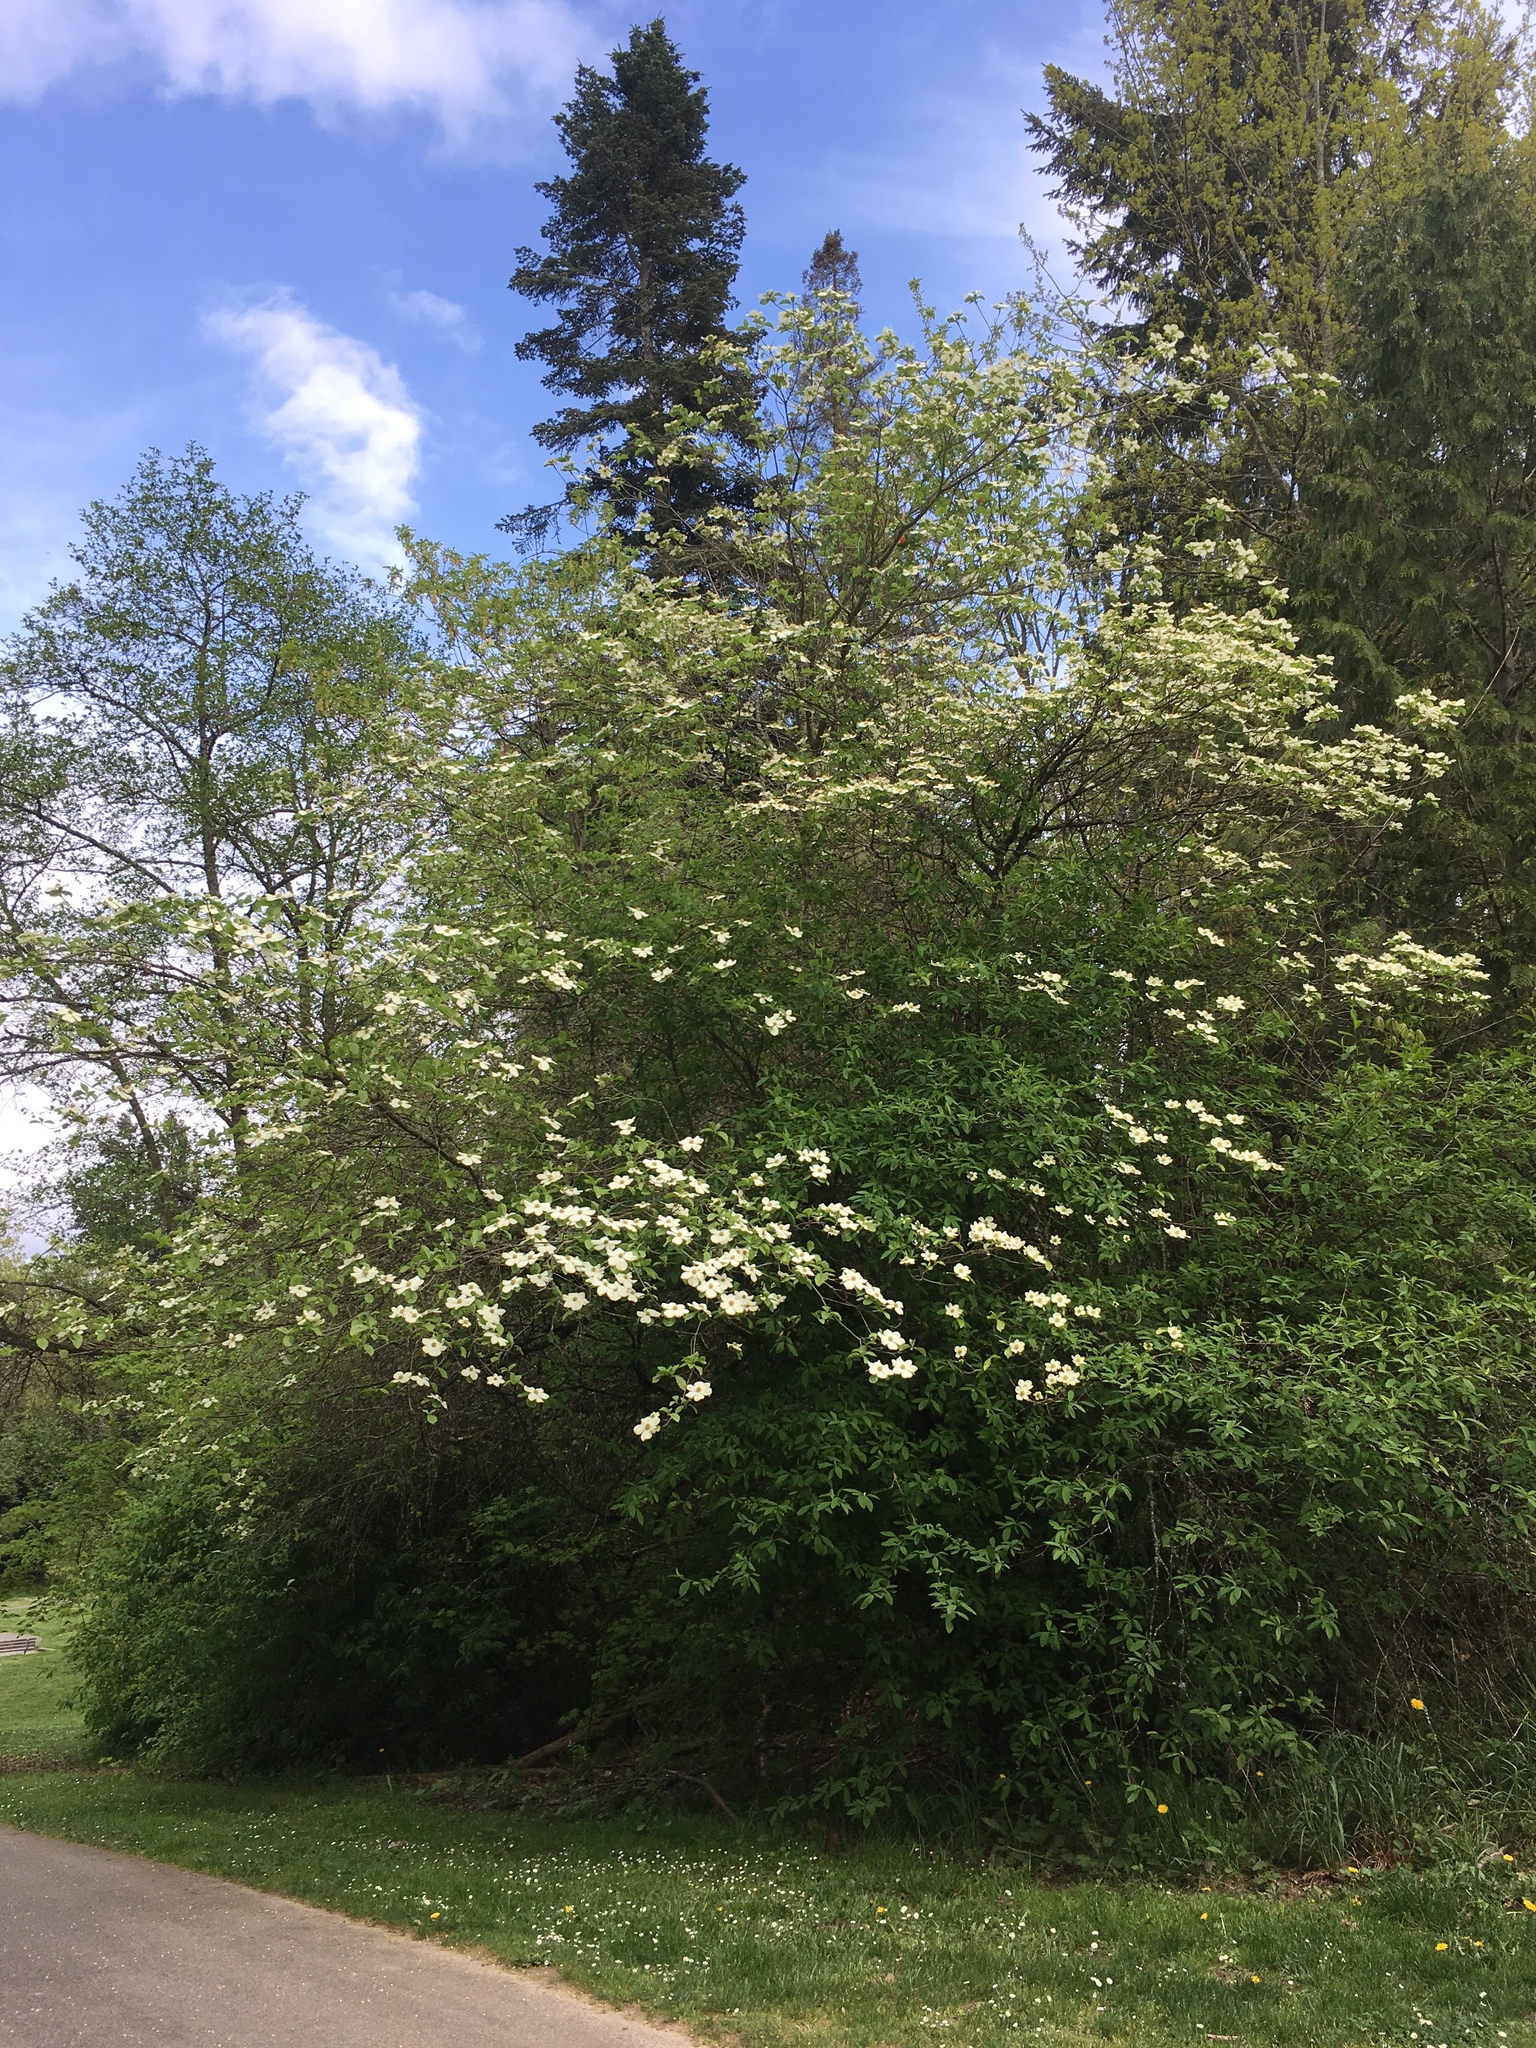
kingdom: Plantae
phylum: Tracheophyta
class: Magnoliopsida
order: Cornales
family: Cornaceae
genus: Cornus
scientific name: Cornus nuttallii
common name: Pacific dogwood
